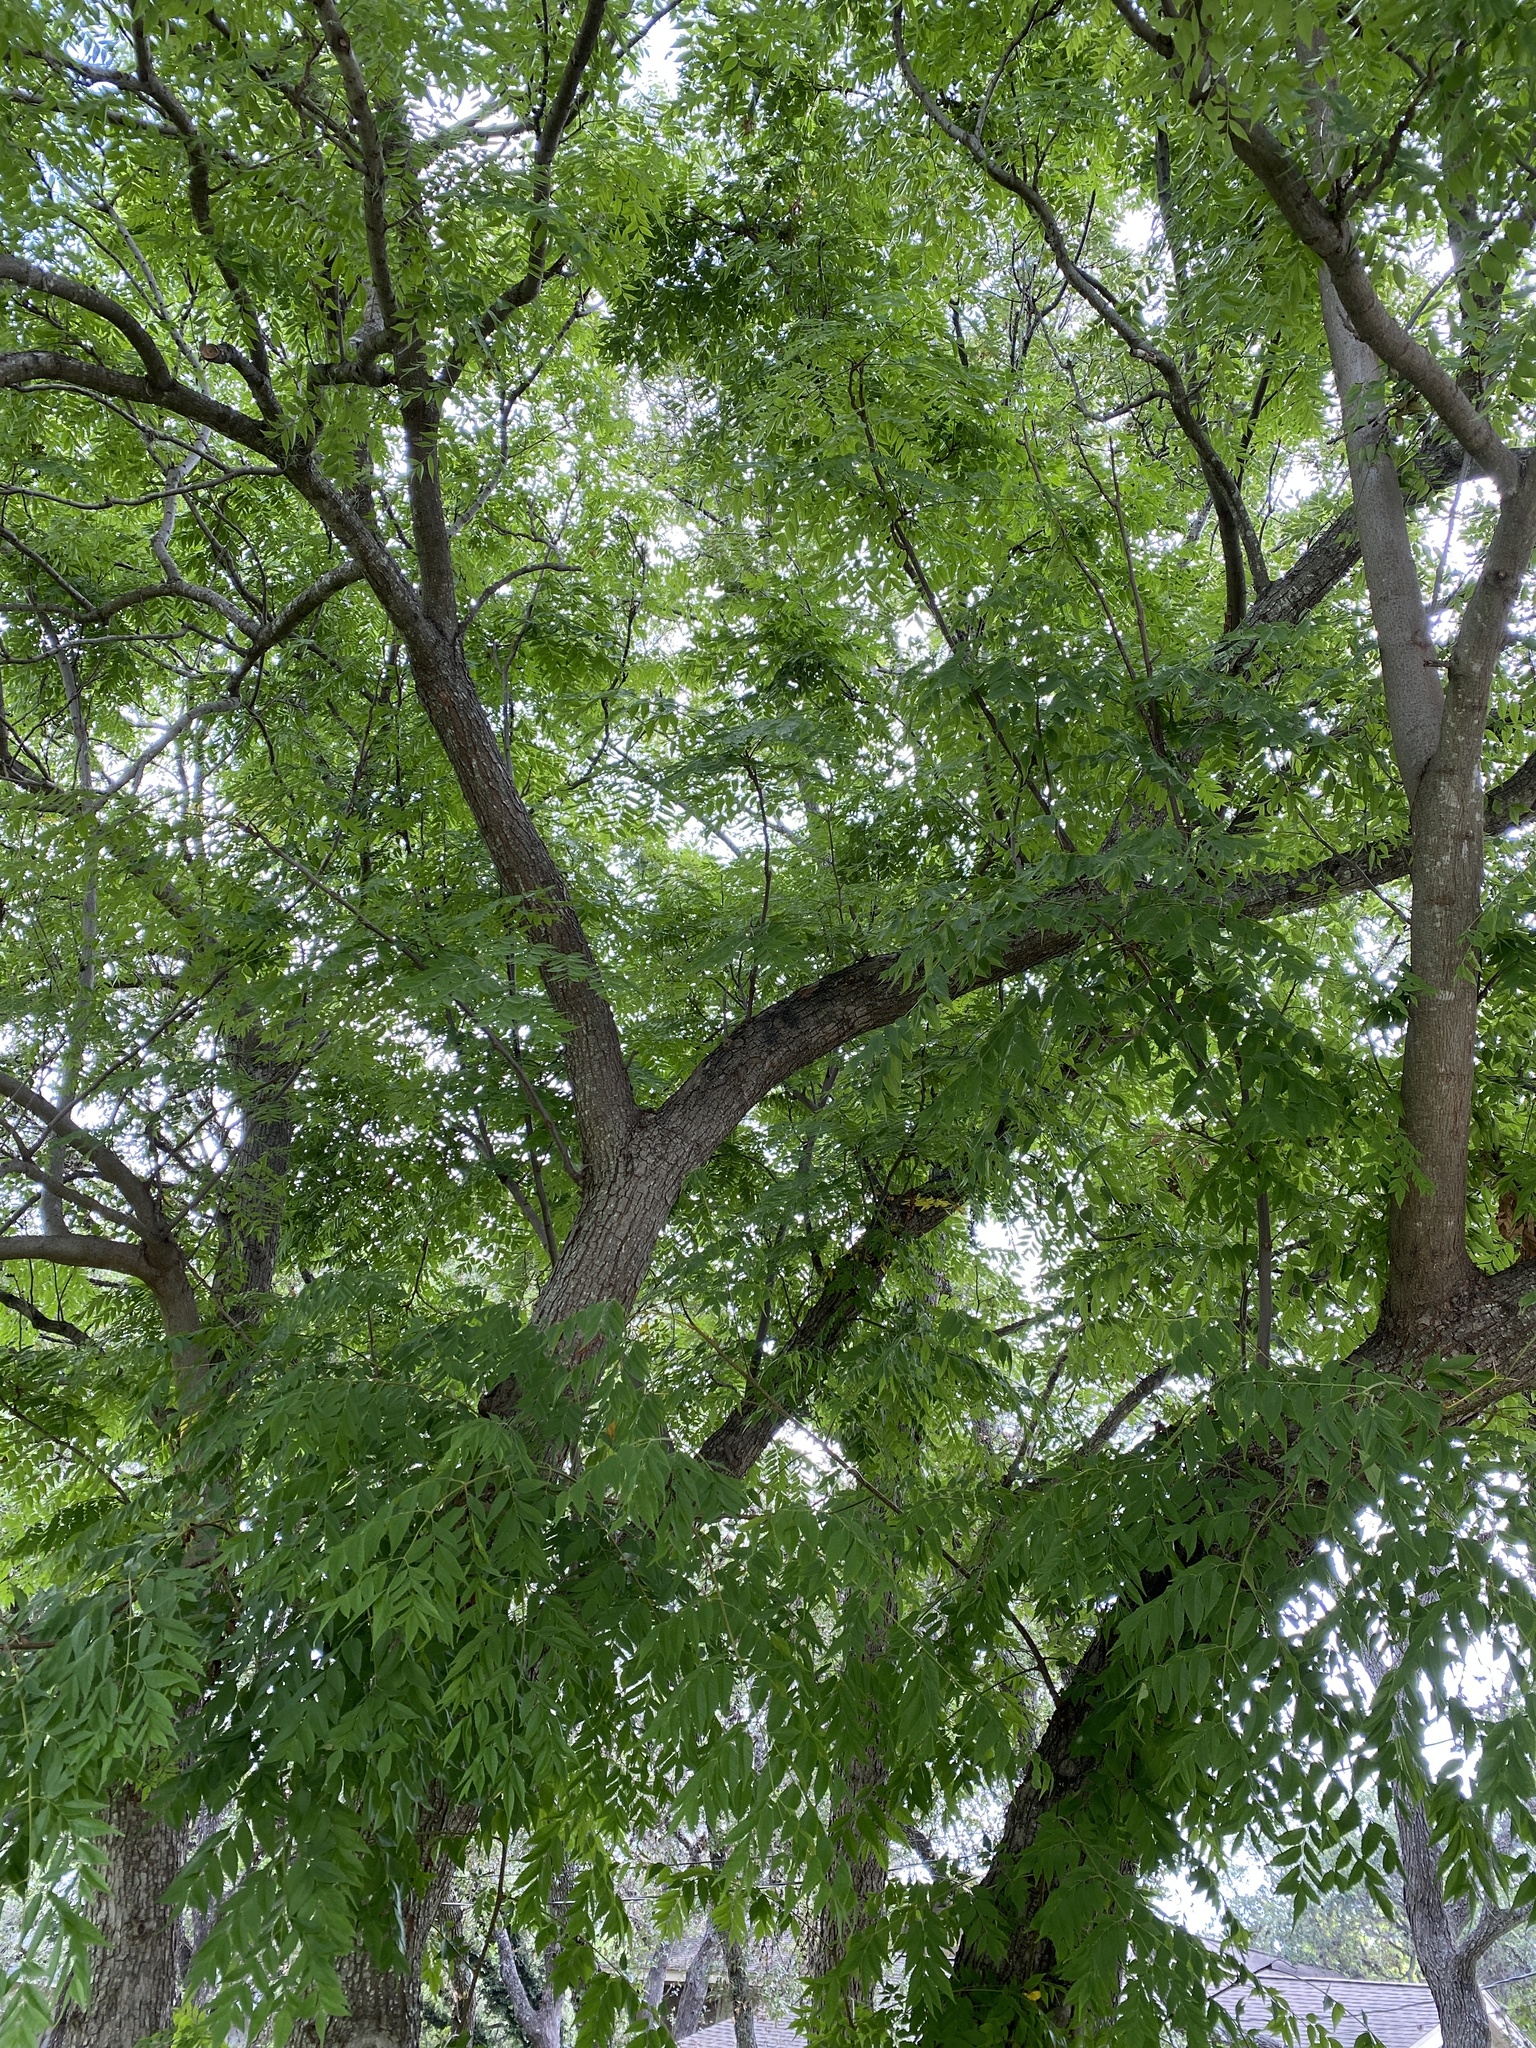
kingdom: Plantae
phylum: Tracheophyta
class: Magnoliopsida
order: Sapindales
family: Anacardiaceae
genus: Pistacia
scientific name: Pistacia chinensis
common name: Chinese pistache
